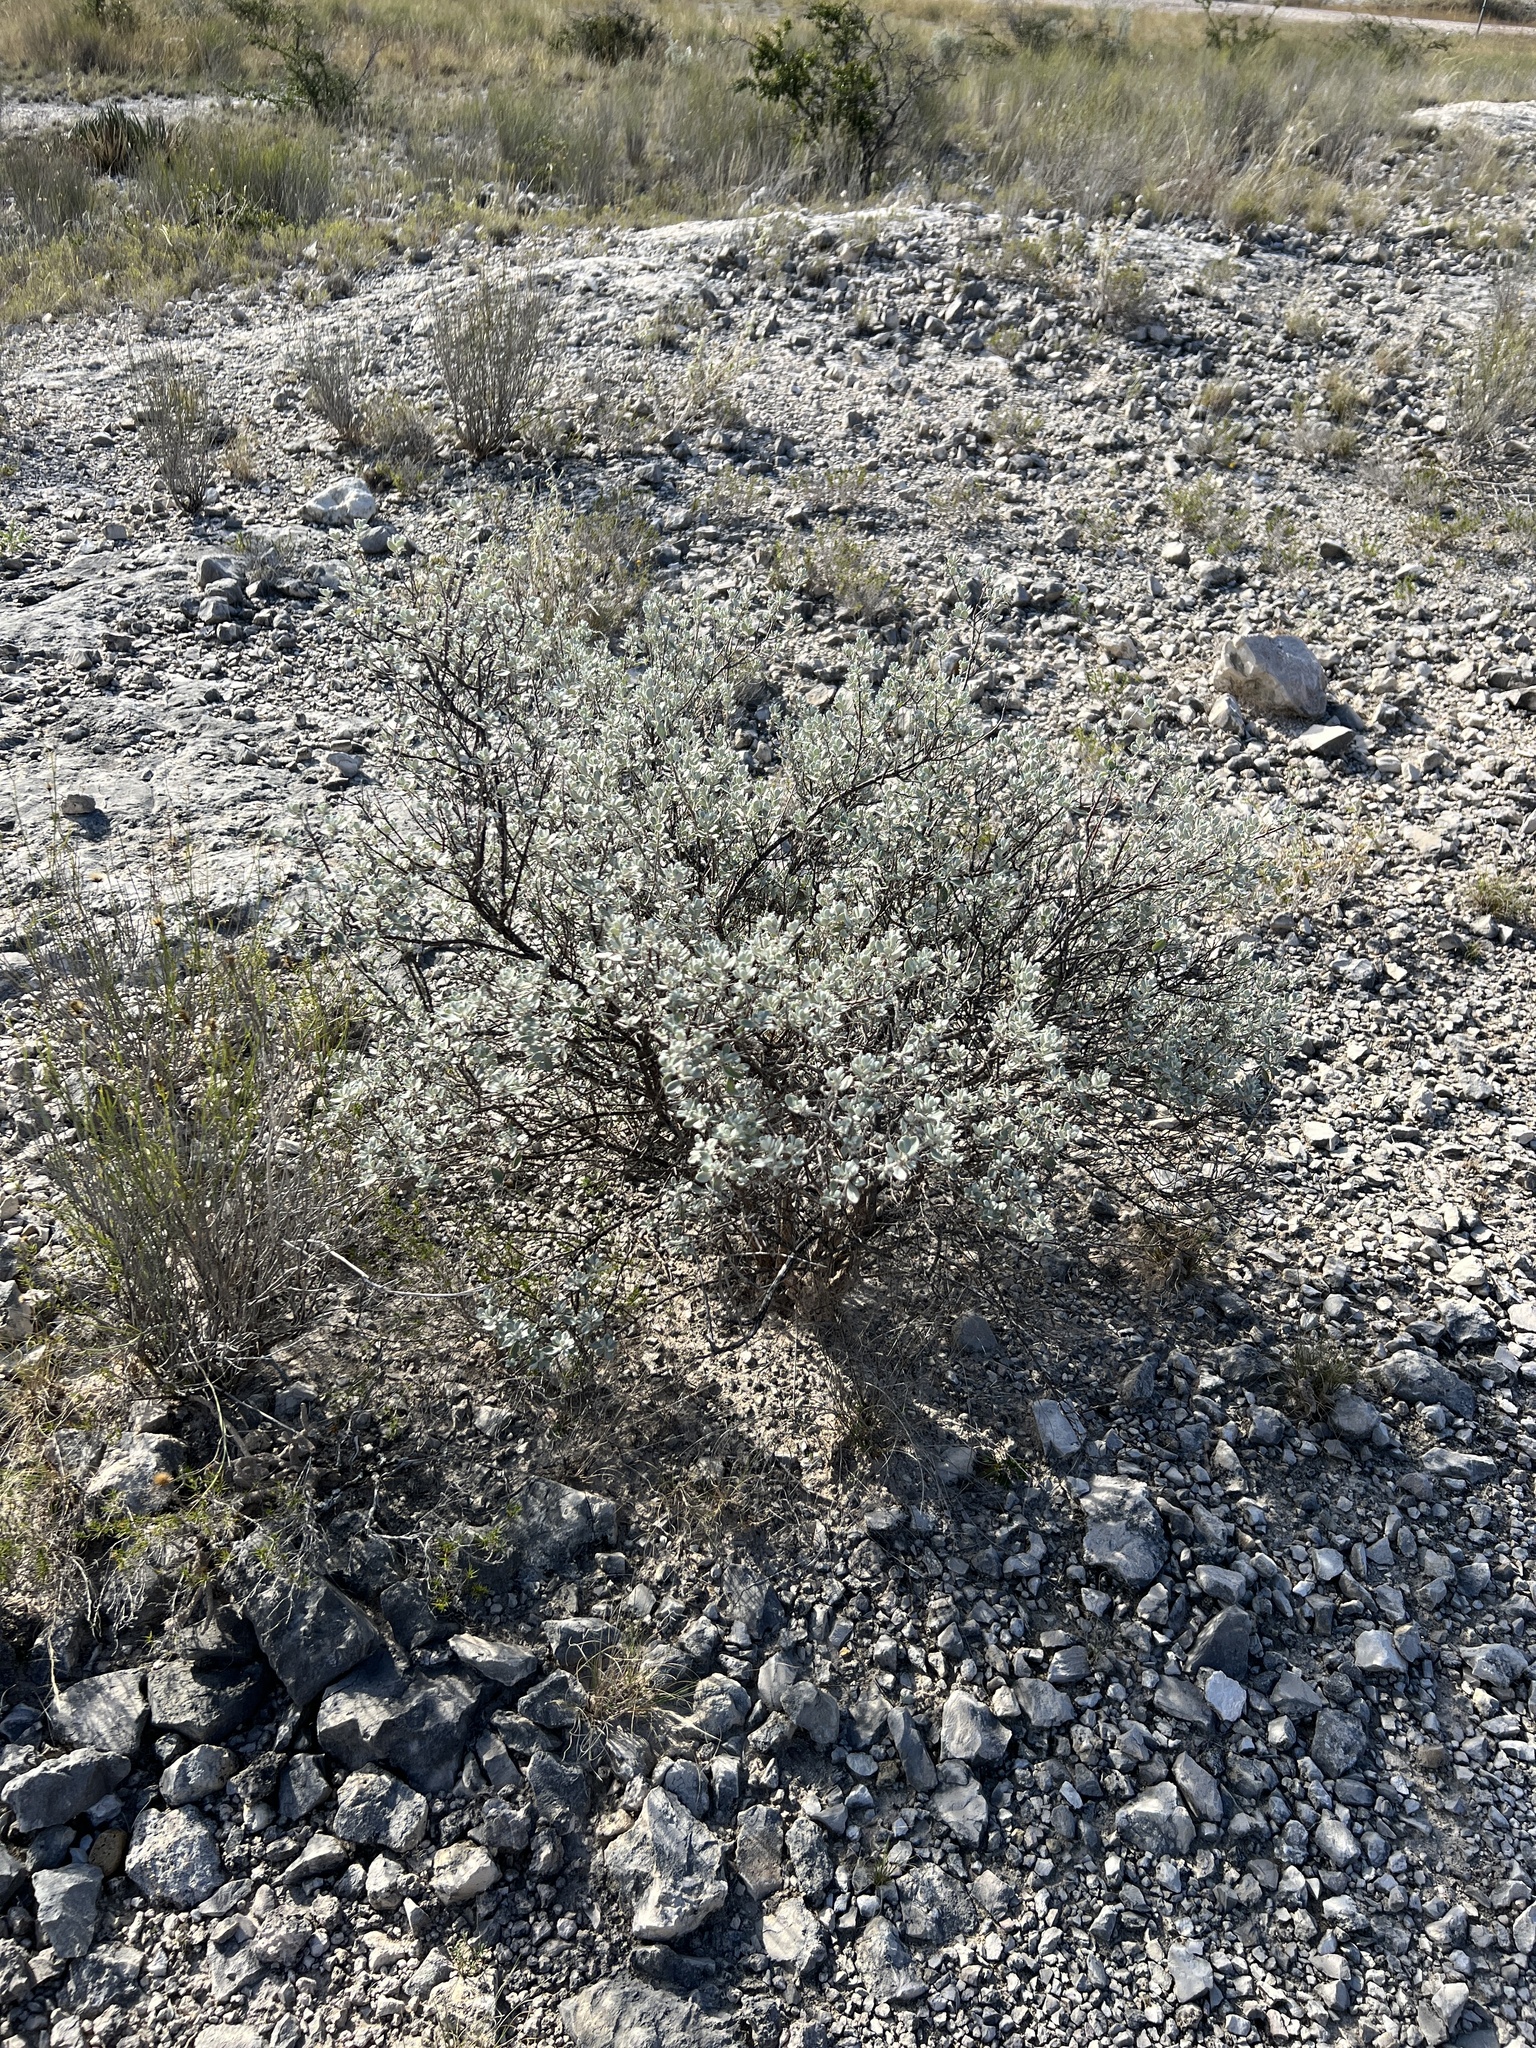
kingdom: Plantae
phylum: Tracheophyta
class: Magnoliopsida
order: Lamiales
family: Scrophulariaceae
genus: Leucophyllum
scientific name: Leucophyllum frutescens
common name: Texas silverleaf
